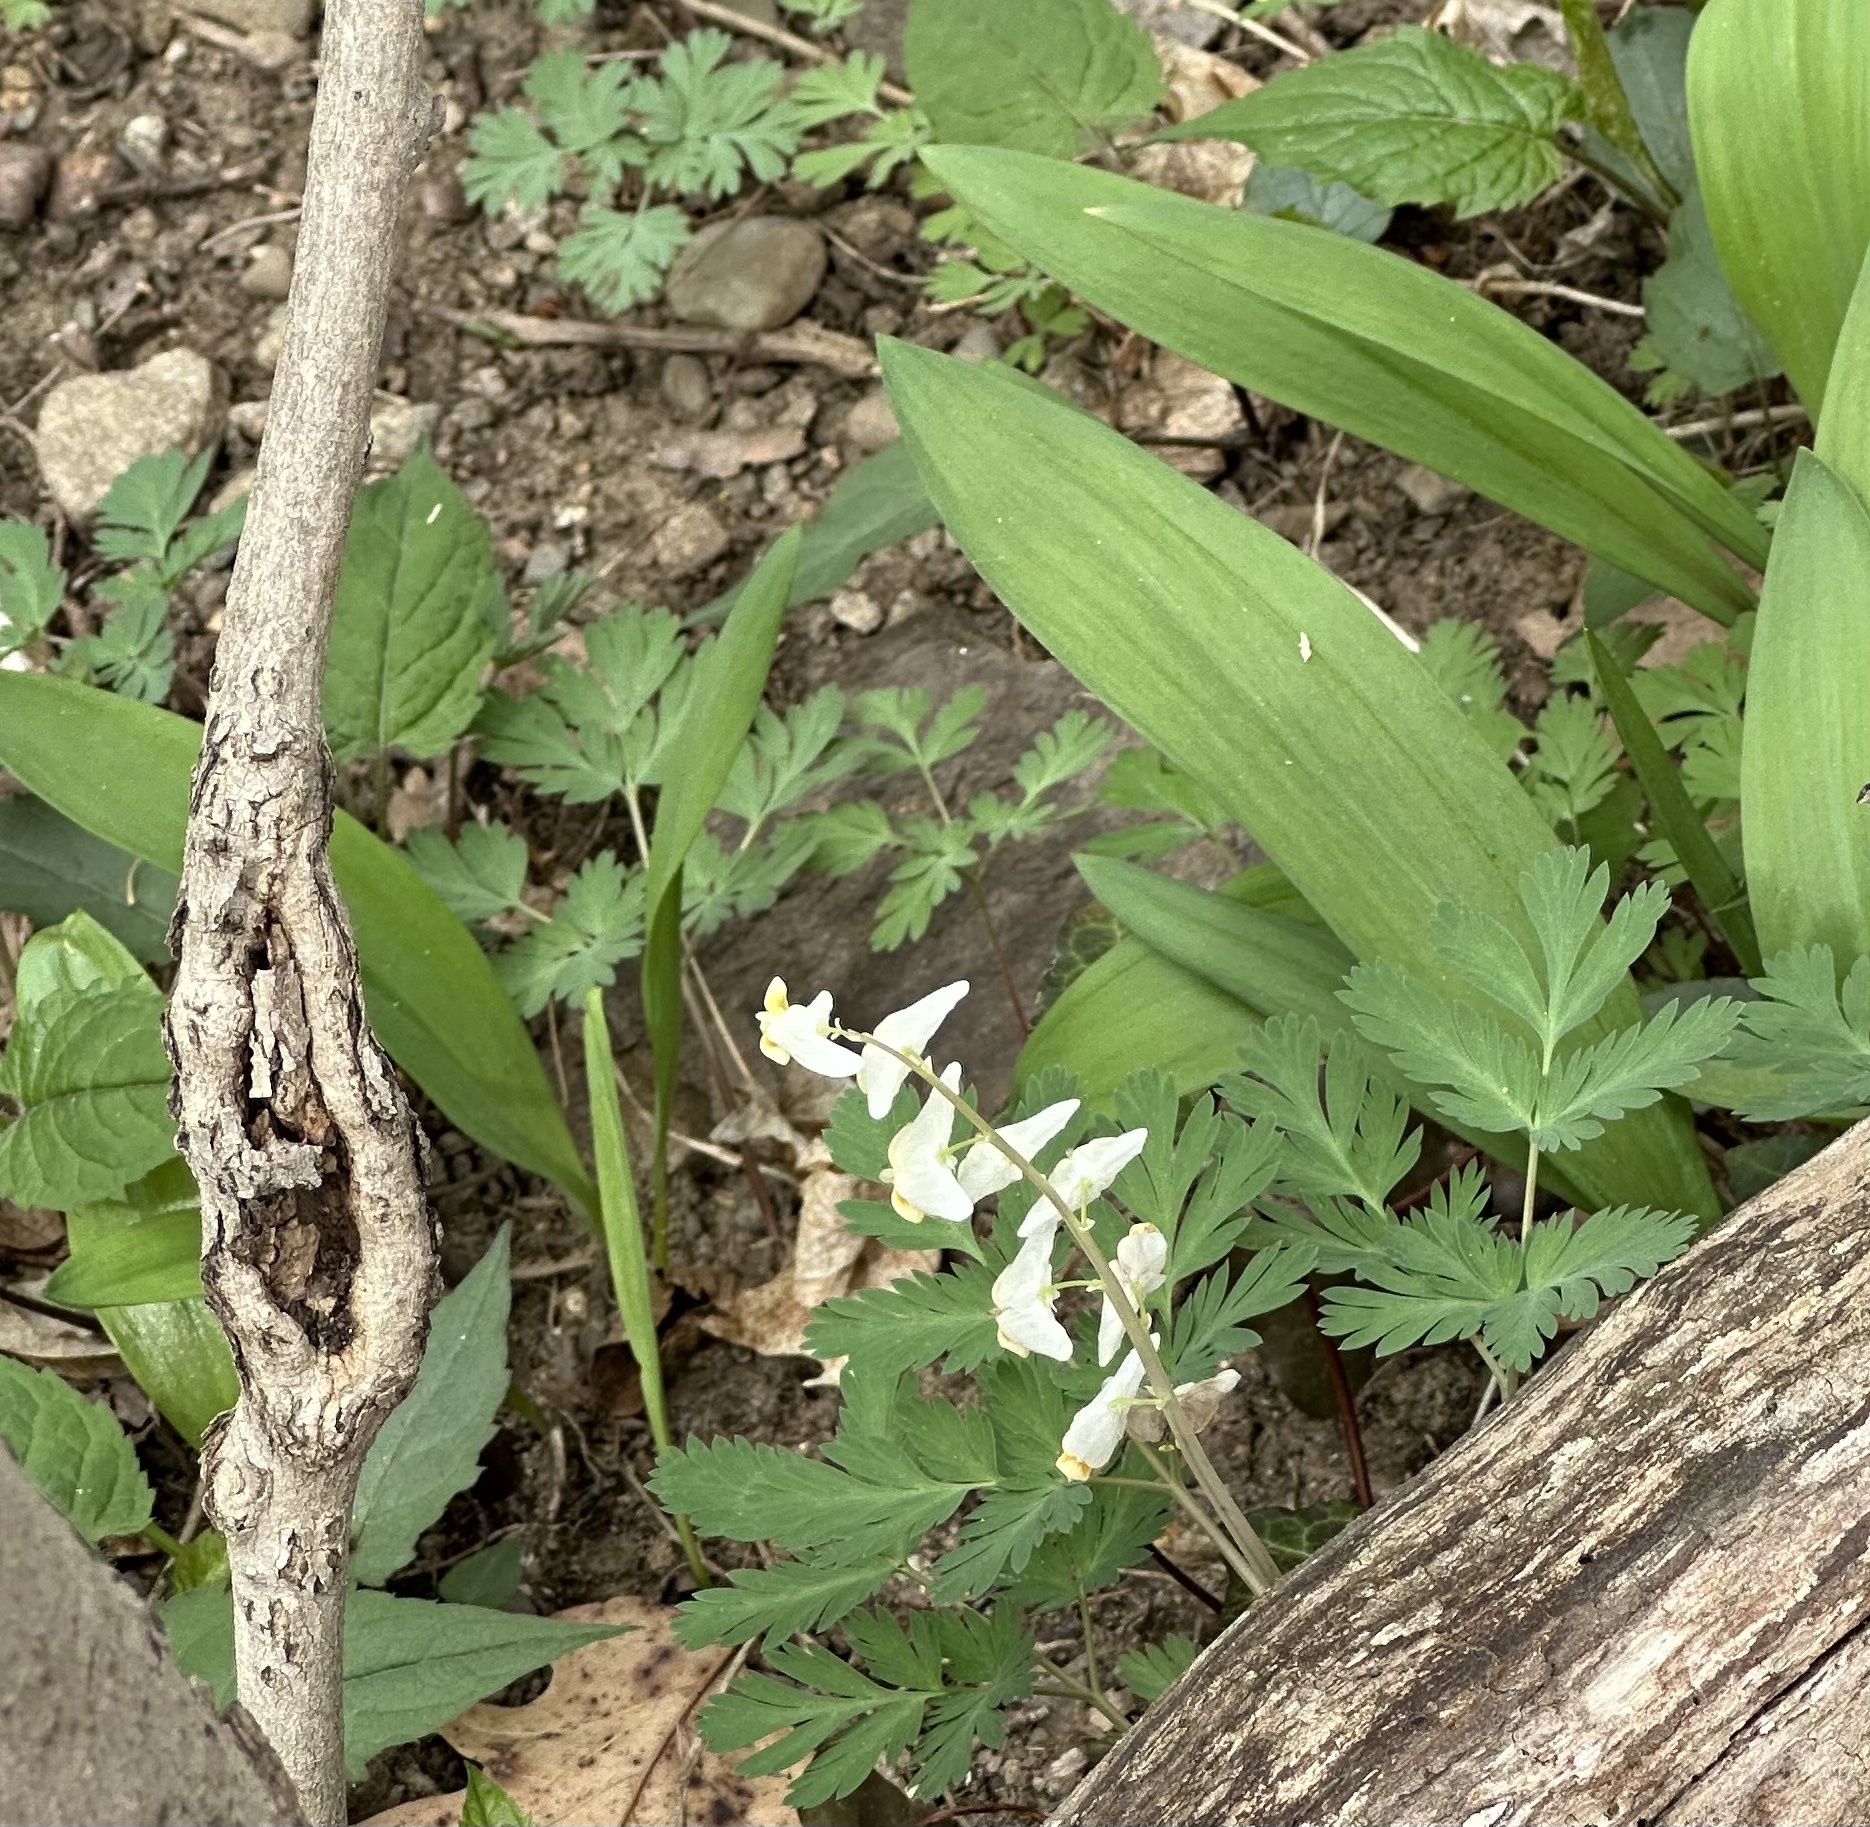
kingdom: Plantae
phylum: Tracheophyta
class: Magnoliopsida
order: Ranunculales
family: Papaveraceae
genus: Dicentra
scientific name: Dicentra cucullaria
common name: Dutchman's breeches
